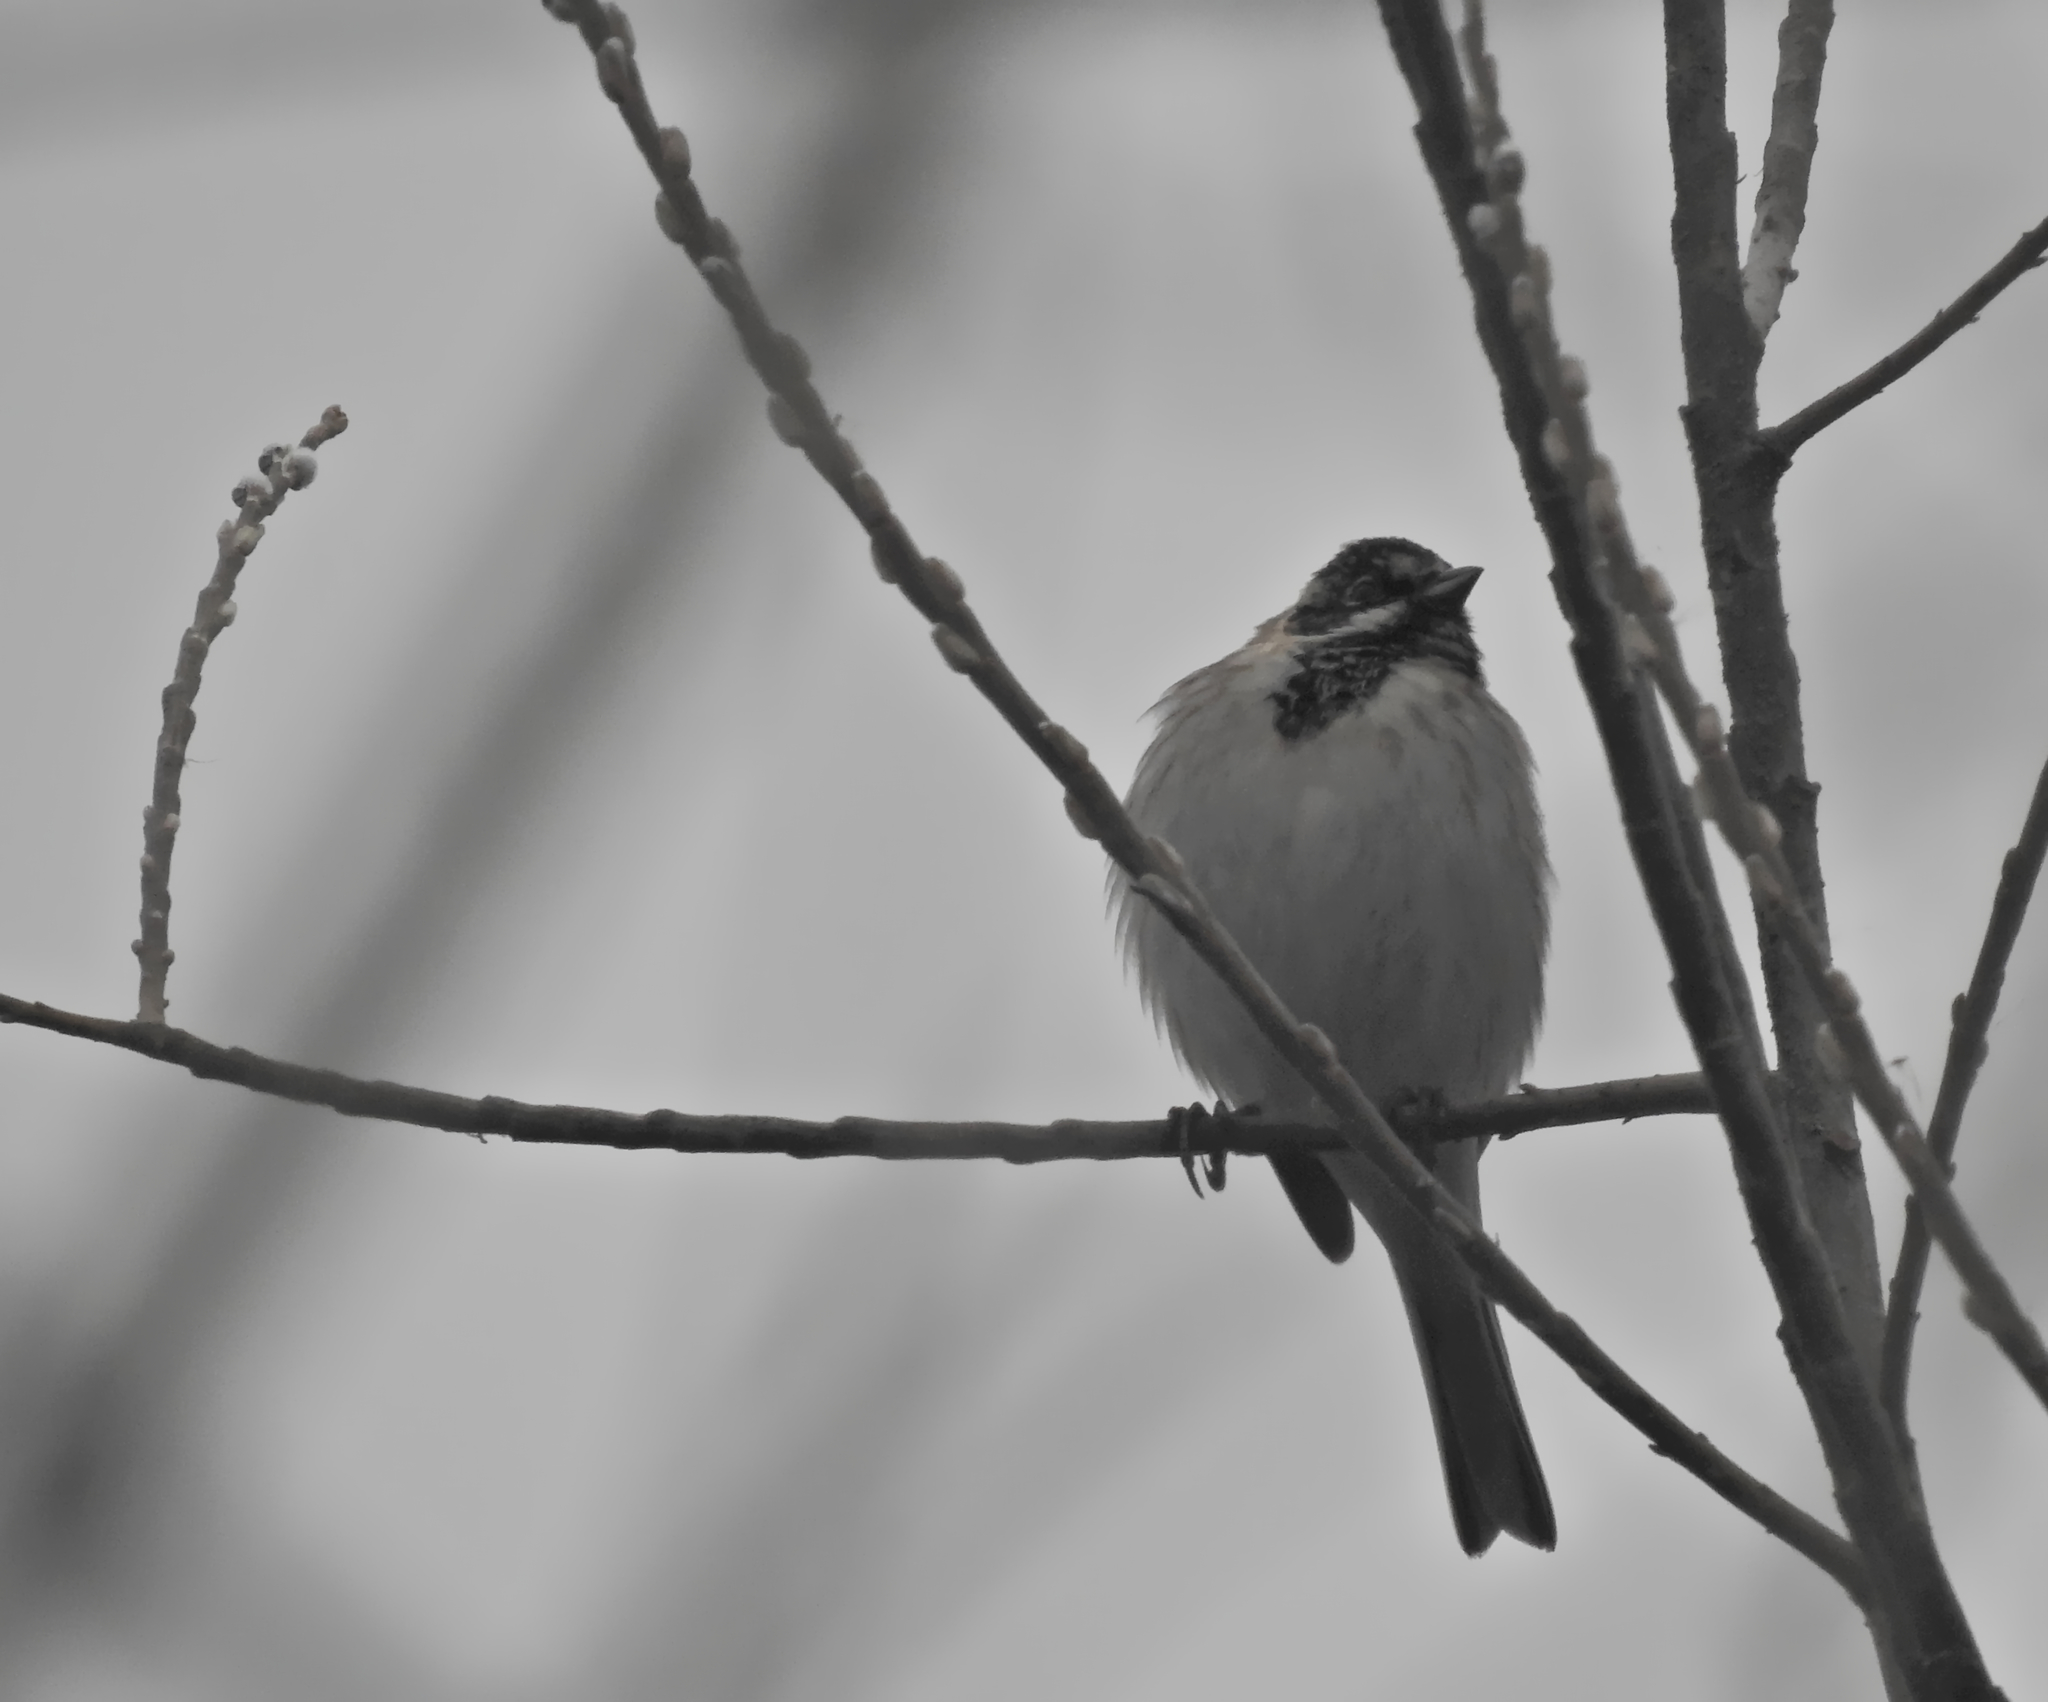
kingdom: Animalia
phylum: Chordata
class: Aves
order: Passeriformes
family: Emberizidae
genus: Emberiza
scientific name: Emberiza schoeniclus
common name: Reed bunting
